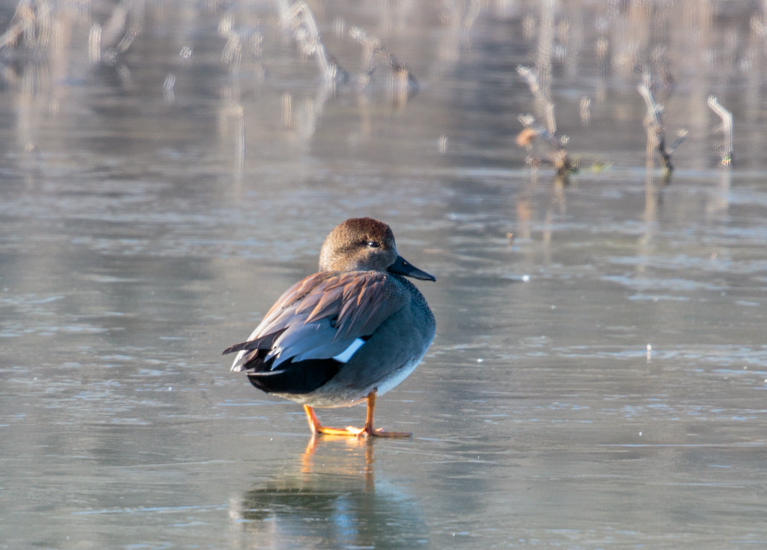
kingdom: Animalia
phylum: Chordata
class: Aves
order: Anseriformes
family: Anatidae
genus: Mareca
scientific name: Mareca strepera
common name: Gadwall
